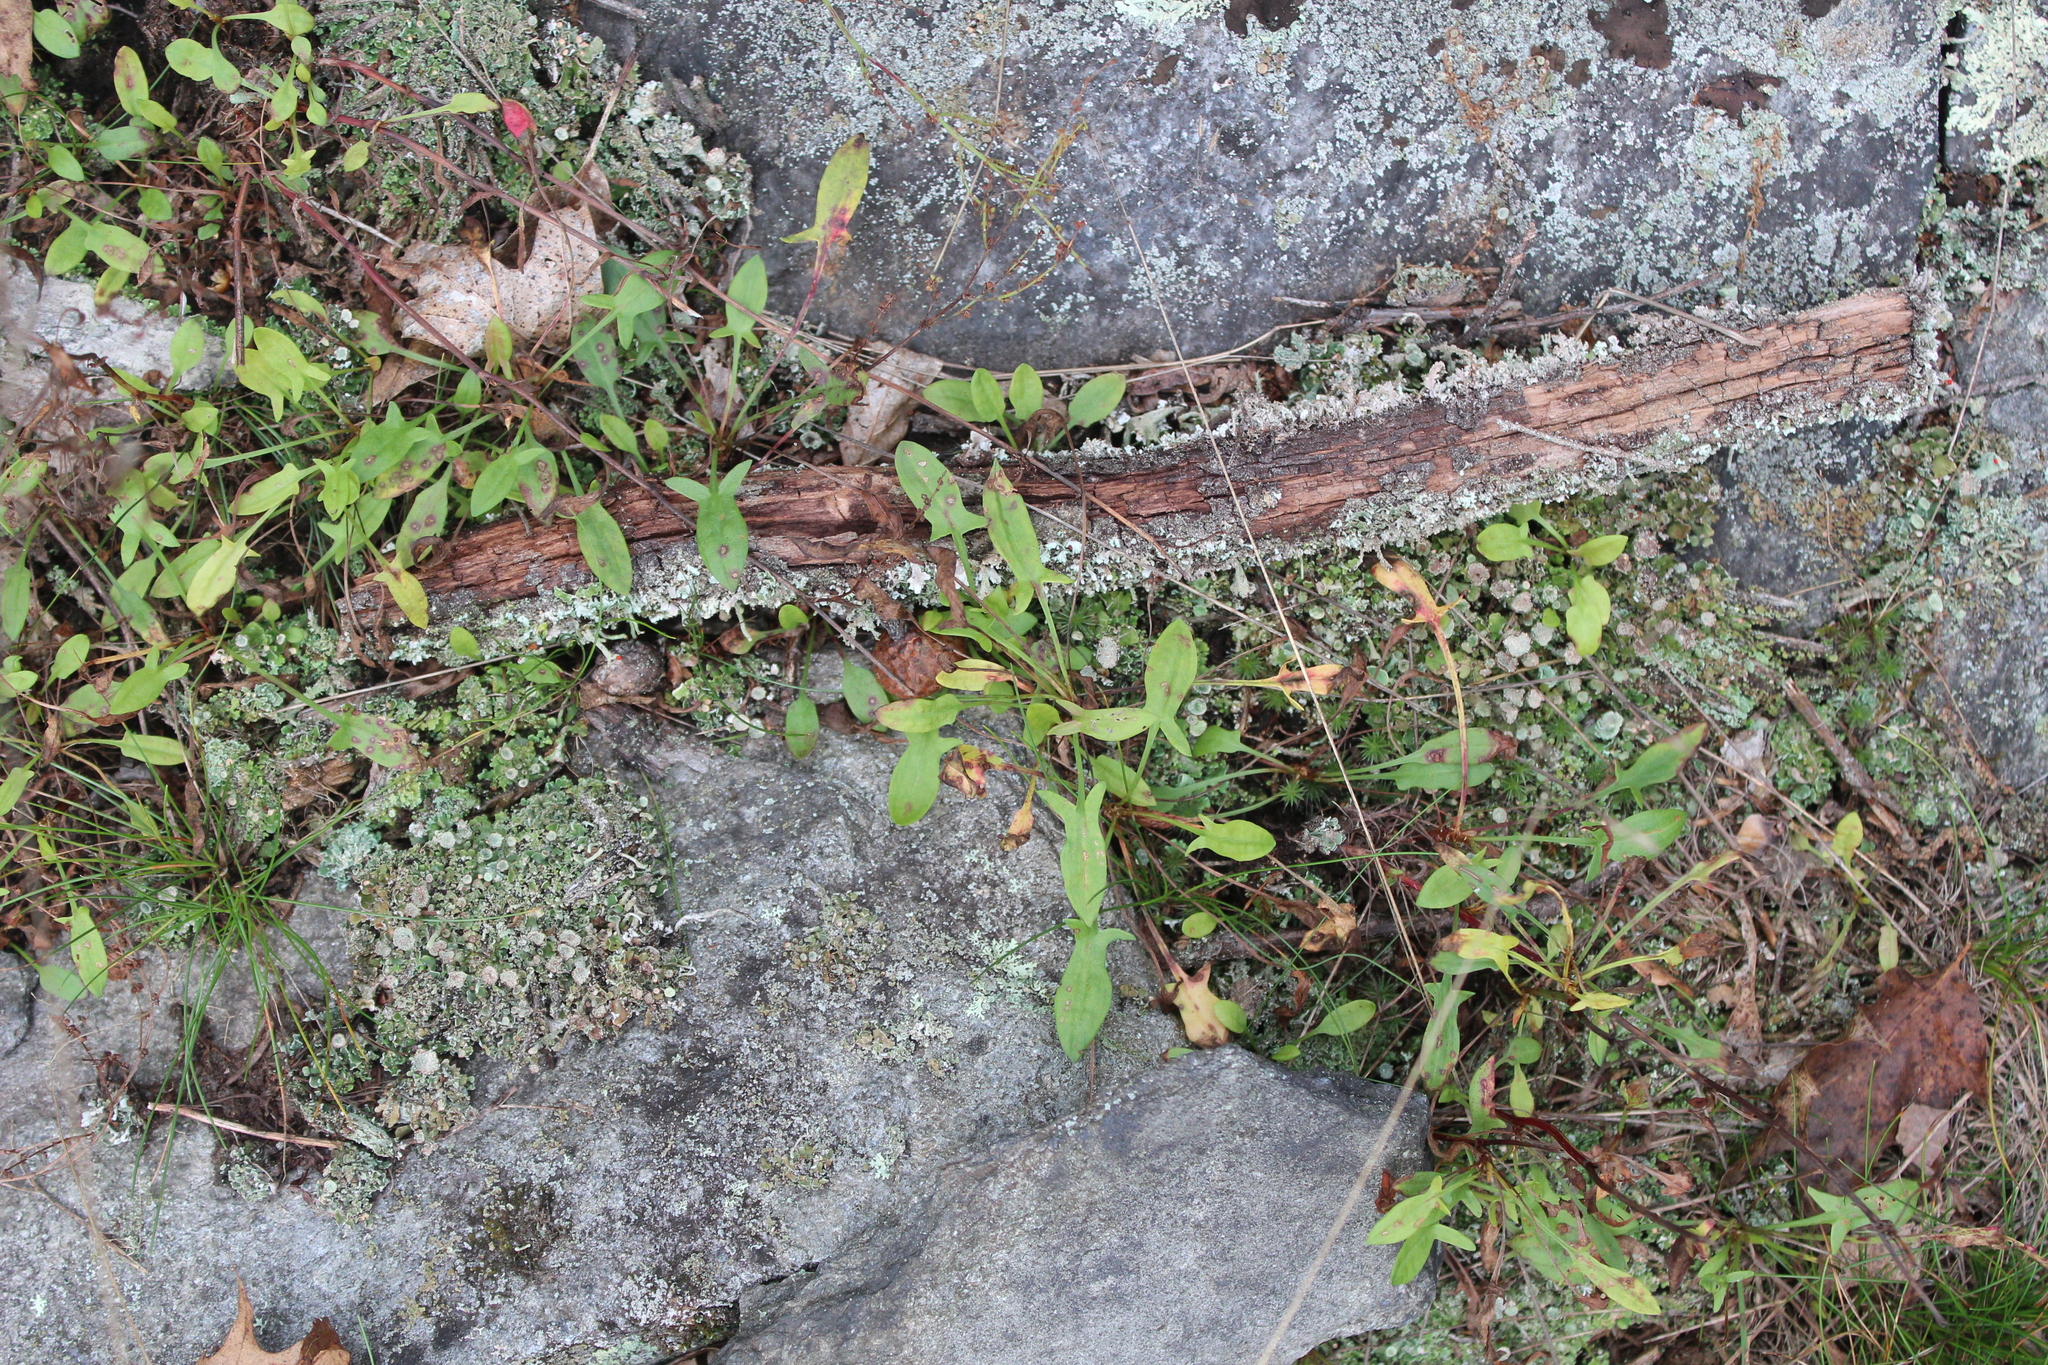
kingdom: Plantae
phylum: Tracheophyta
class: Magnoliopsida
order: Caryophyllales
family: Polygonaceae
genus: Rumex
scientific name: Rumex acetosella
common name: Common sheep sorrel
